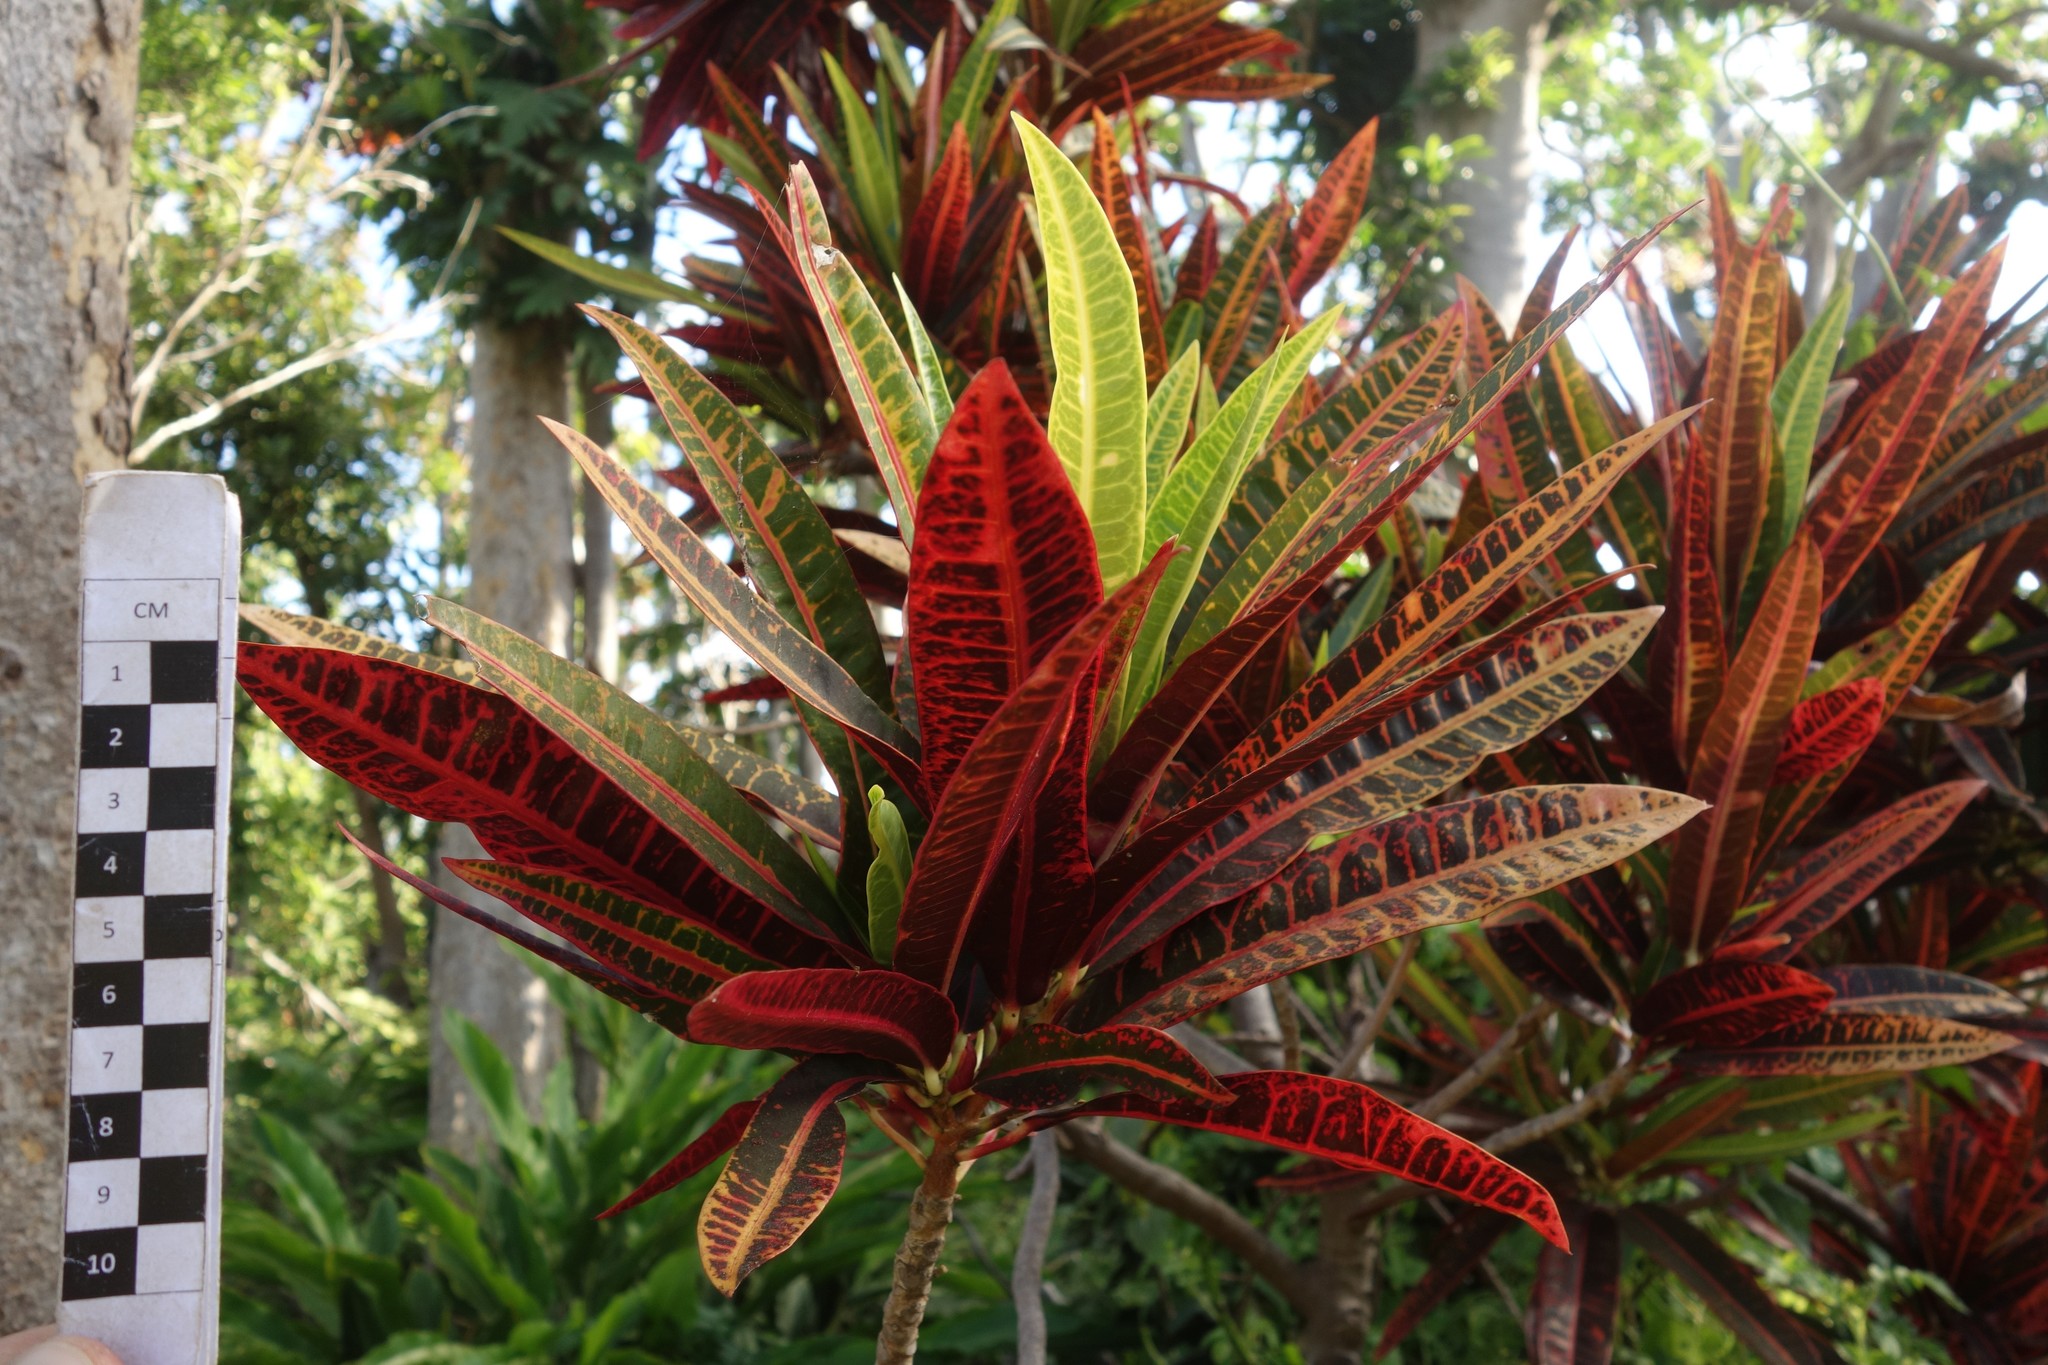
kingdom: Plantae
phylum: Tracheophyta
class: Magnoliopsida
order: Malpighiales
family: Euphorbiaceae
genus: Codiaeum
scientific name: Codiaeum variegatum
